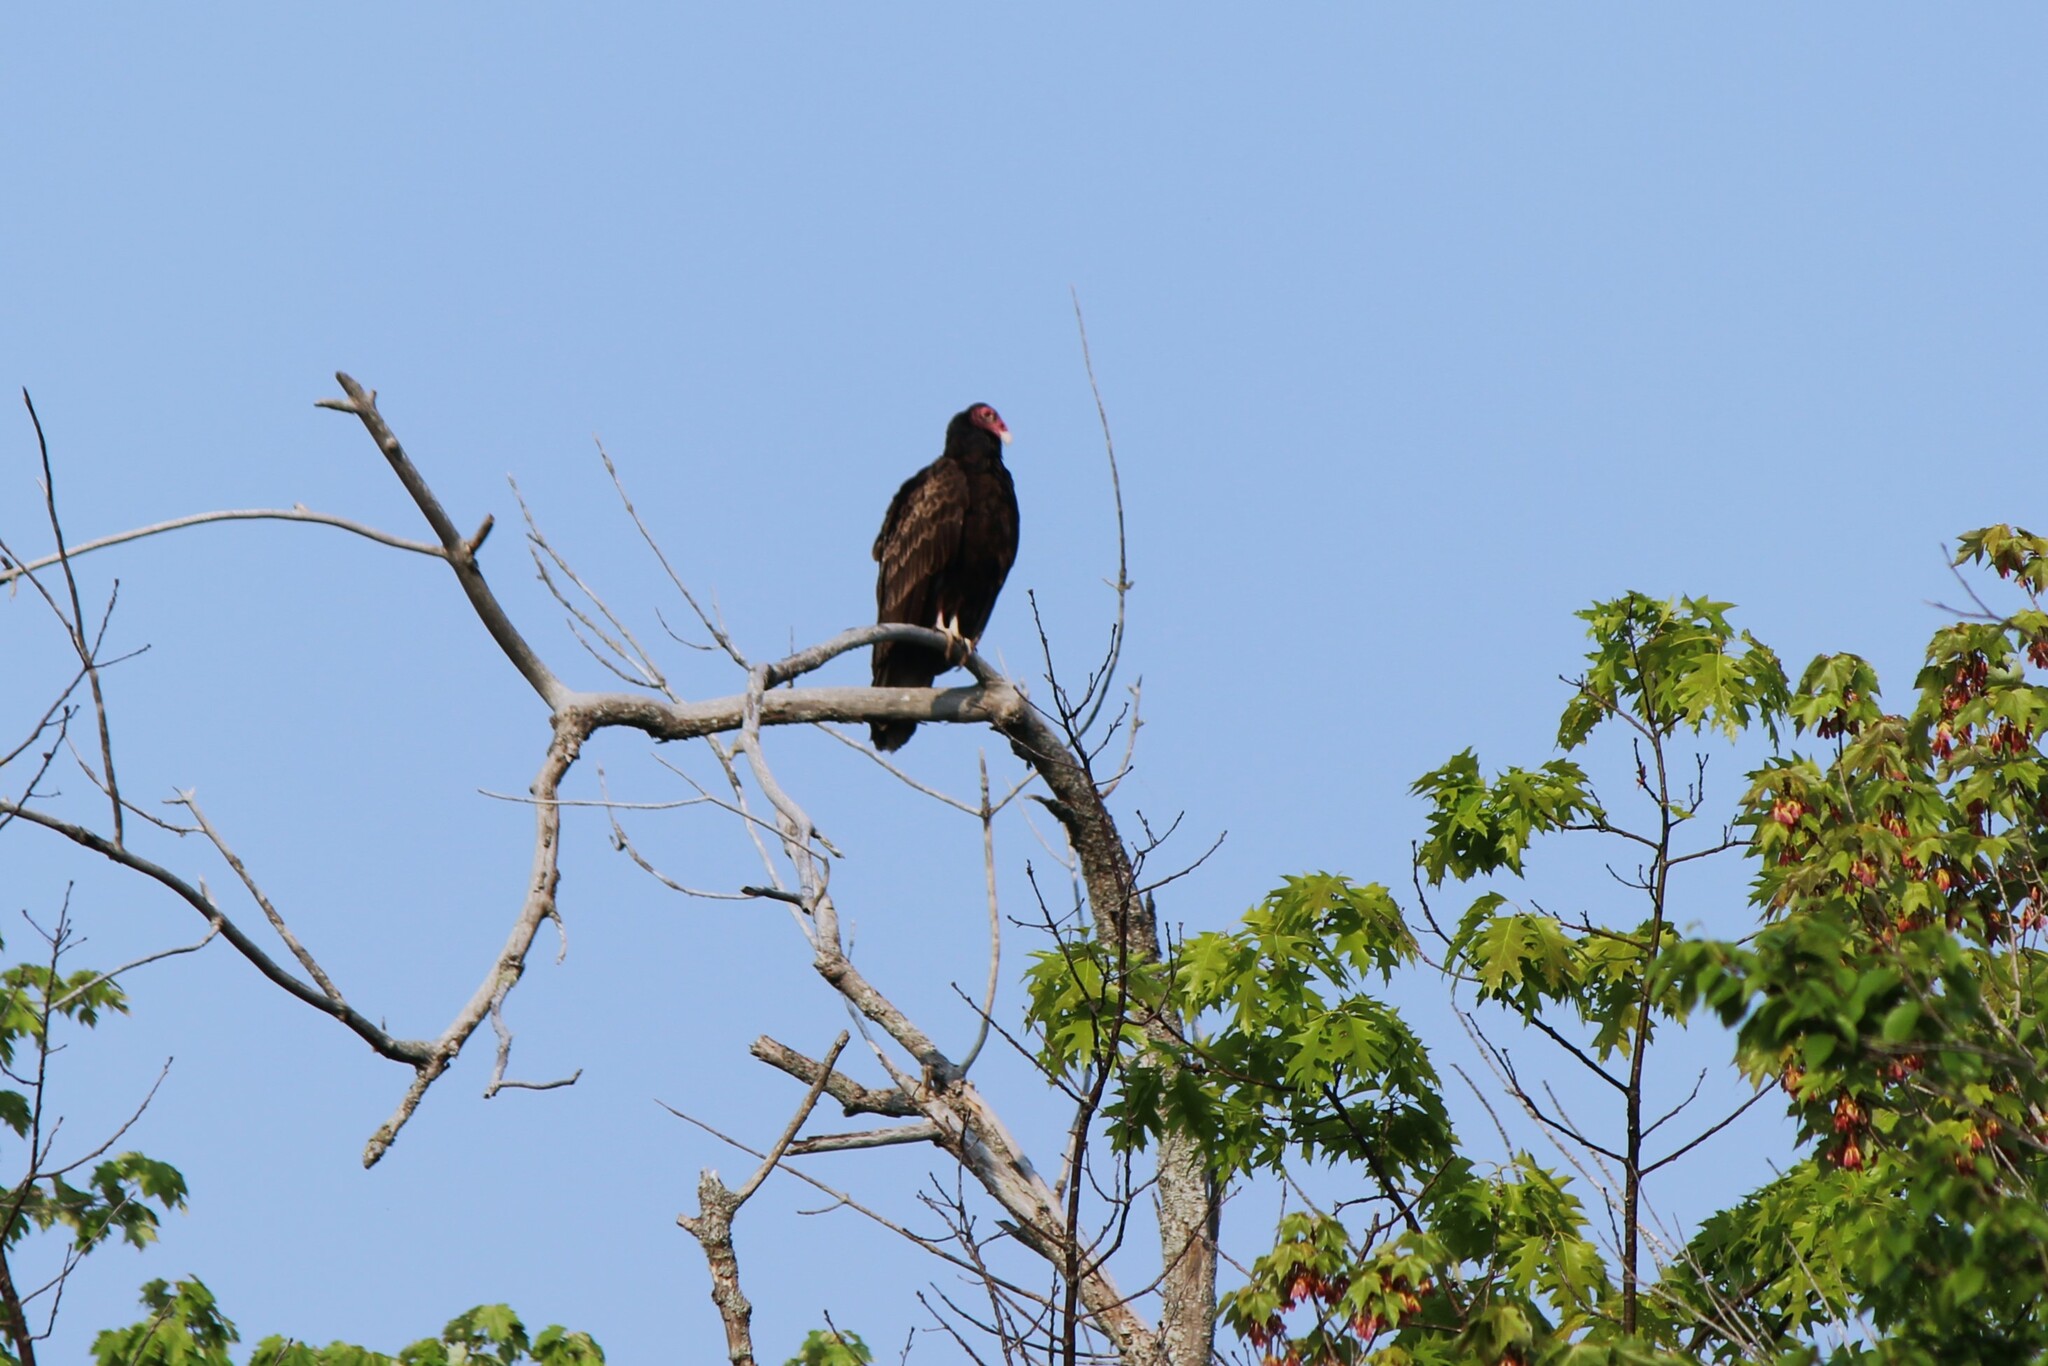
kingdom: Animalia
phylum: Chordata
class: Aves
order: Accipitriformes
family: Cathartidae
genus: Cathartes
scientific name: Cathartes aura
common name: Turkey vulture
